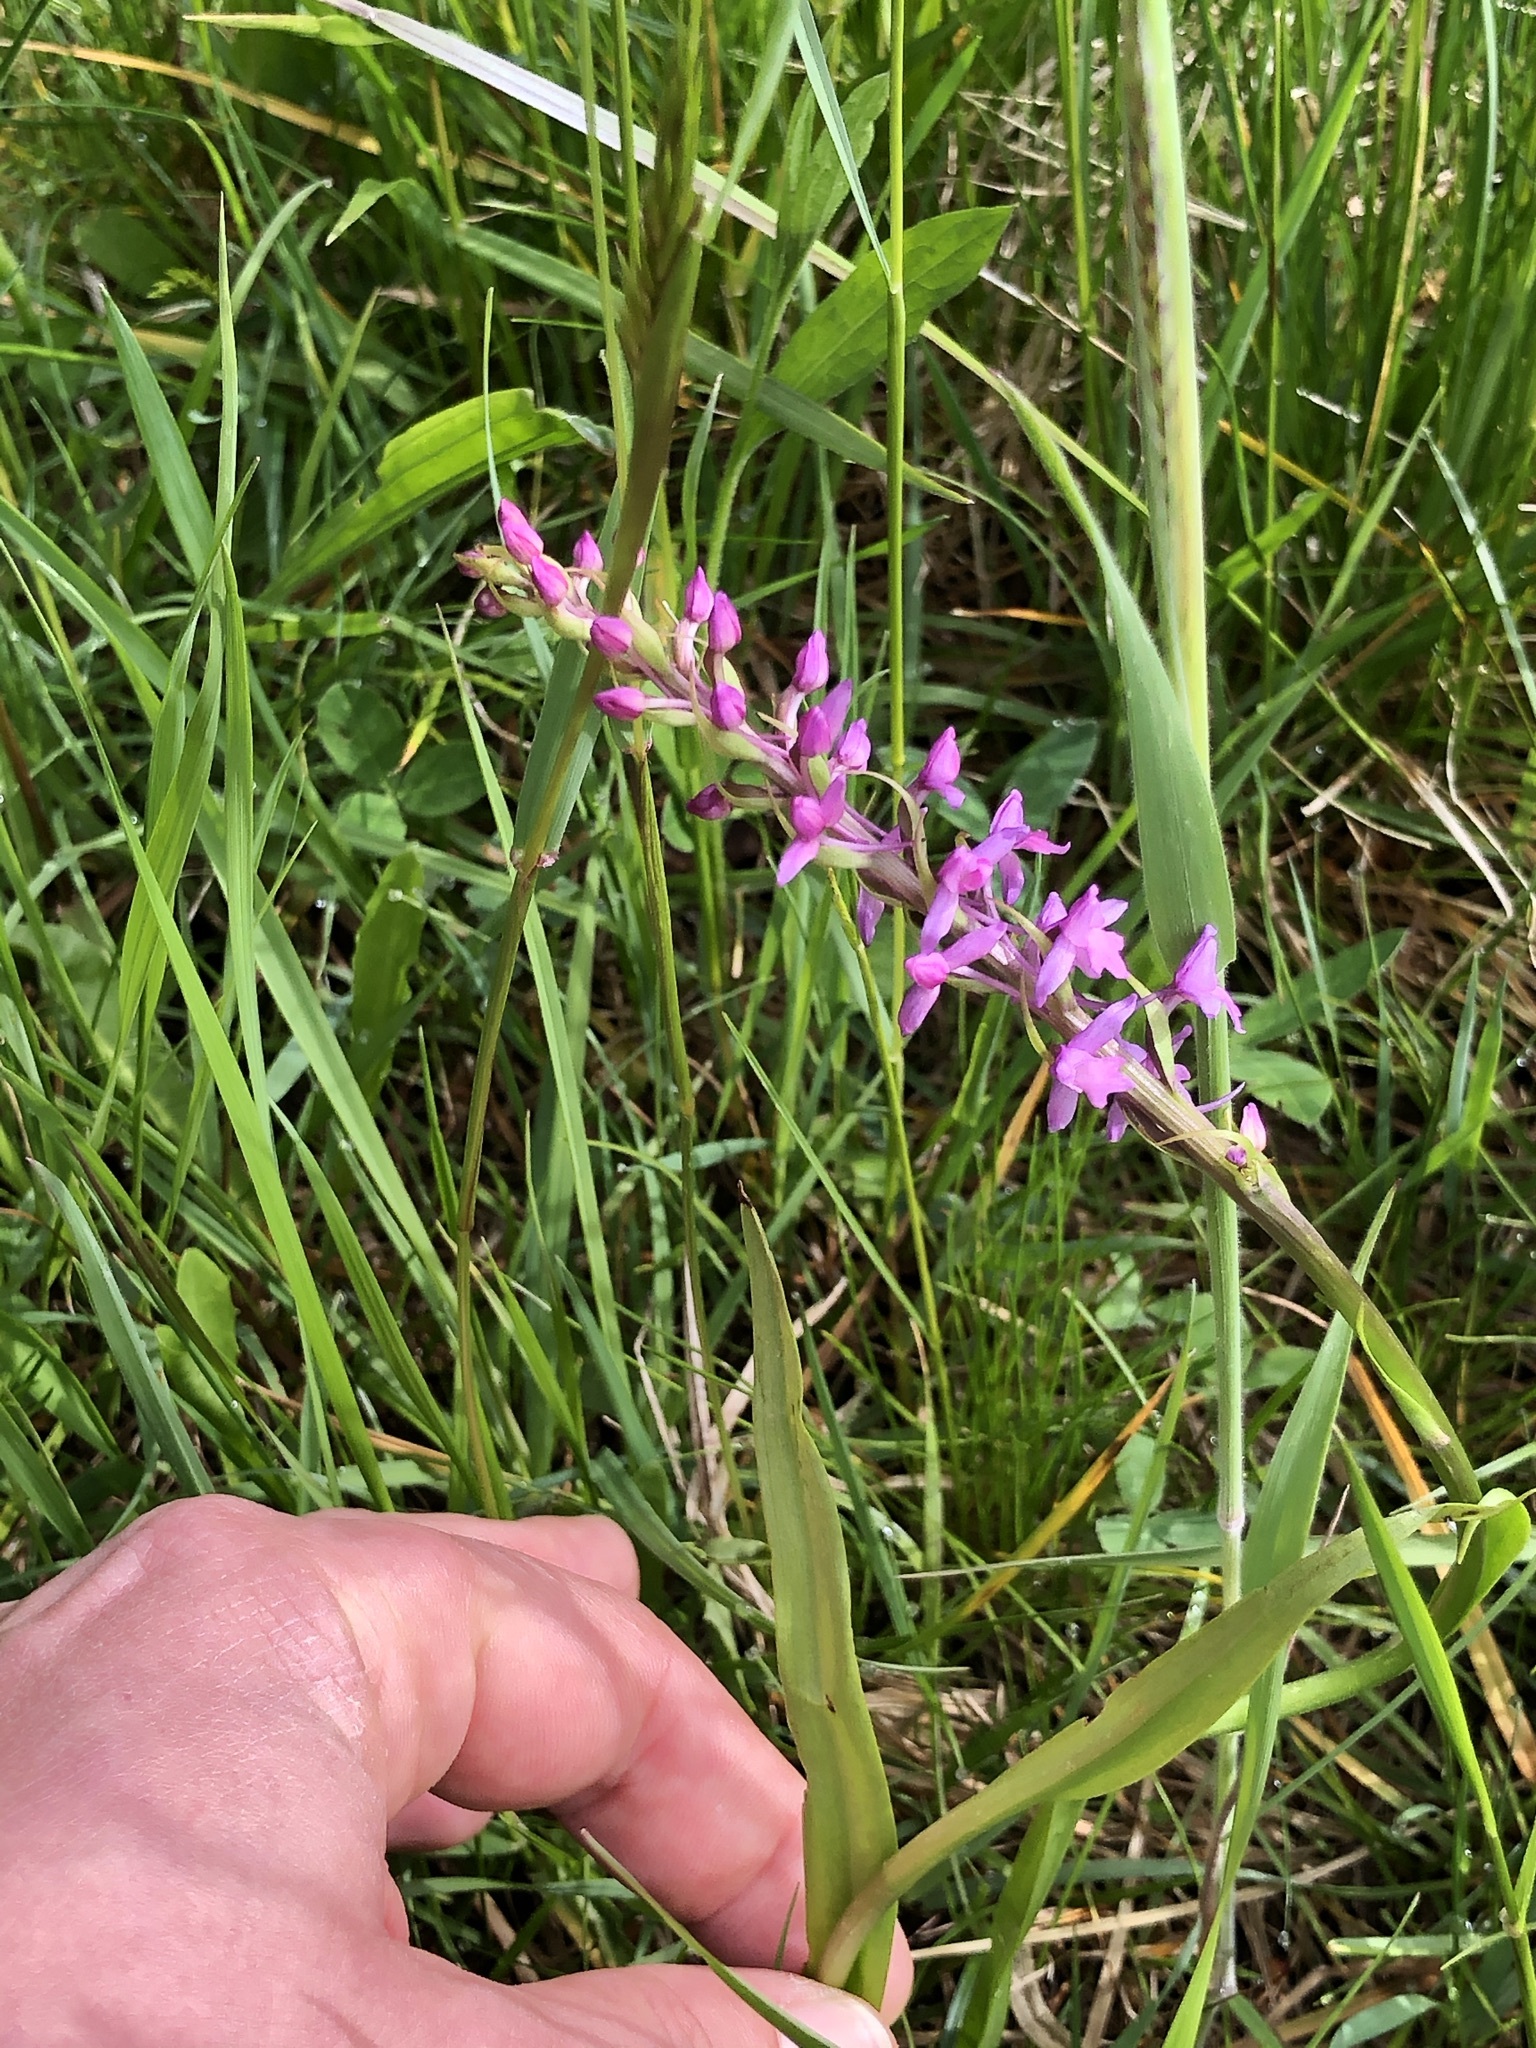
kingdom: Plantae
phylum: Tracheophyta
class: Liliopsida
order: Asparagales
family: Orchidaceae
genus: Gymnadenia
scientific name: Gymnadenia conopsea
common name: Fragrant orchid
